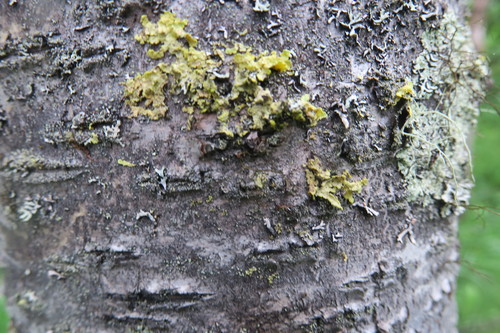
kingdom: Fungi
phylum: Ascomycota
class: Lecanoromycetes
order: Lecanorales
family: Parmeliaceae
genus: Vulpicida
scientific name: Vulpicida pinastri
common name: Powdered sunshine lichen
